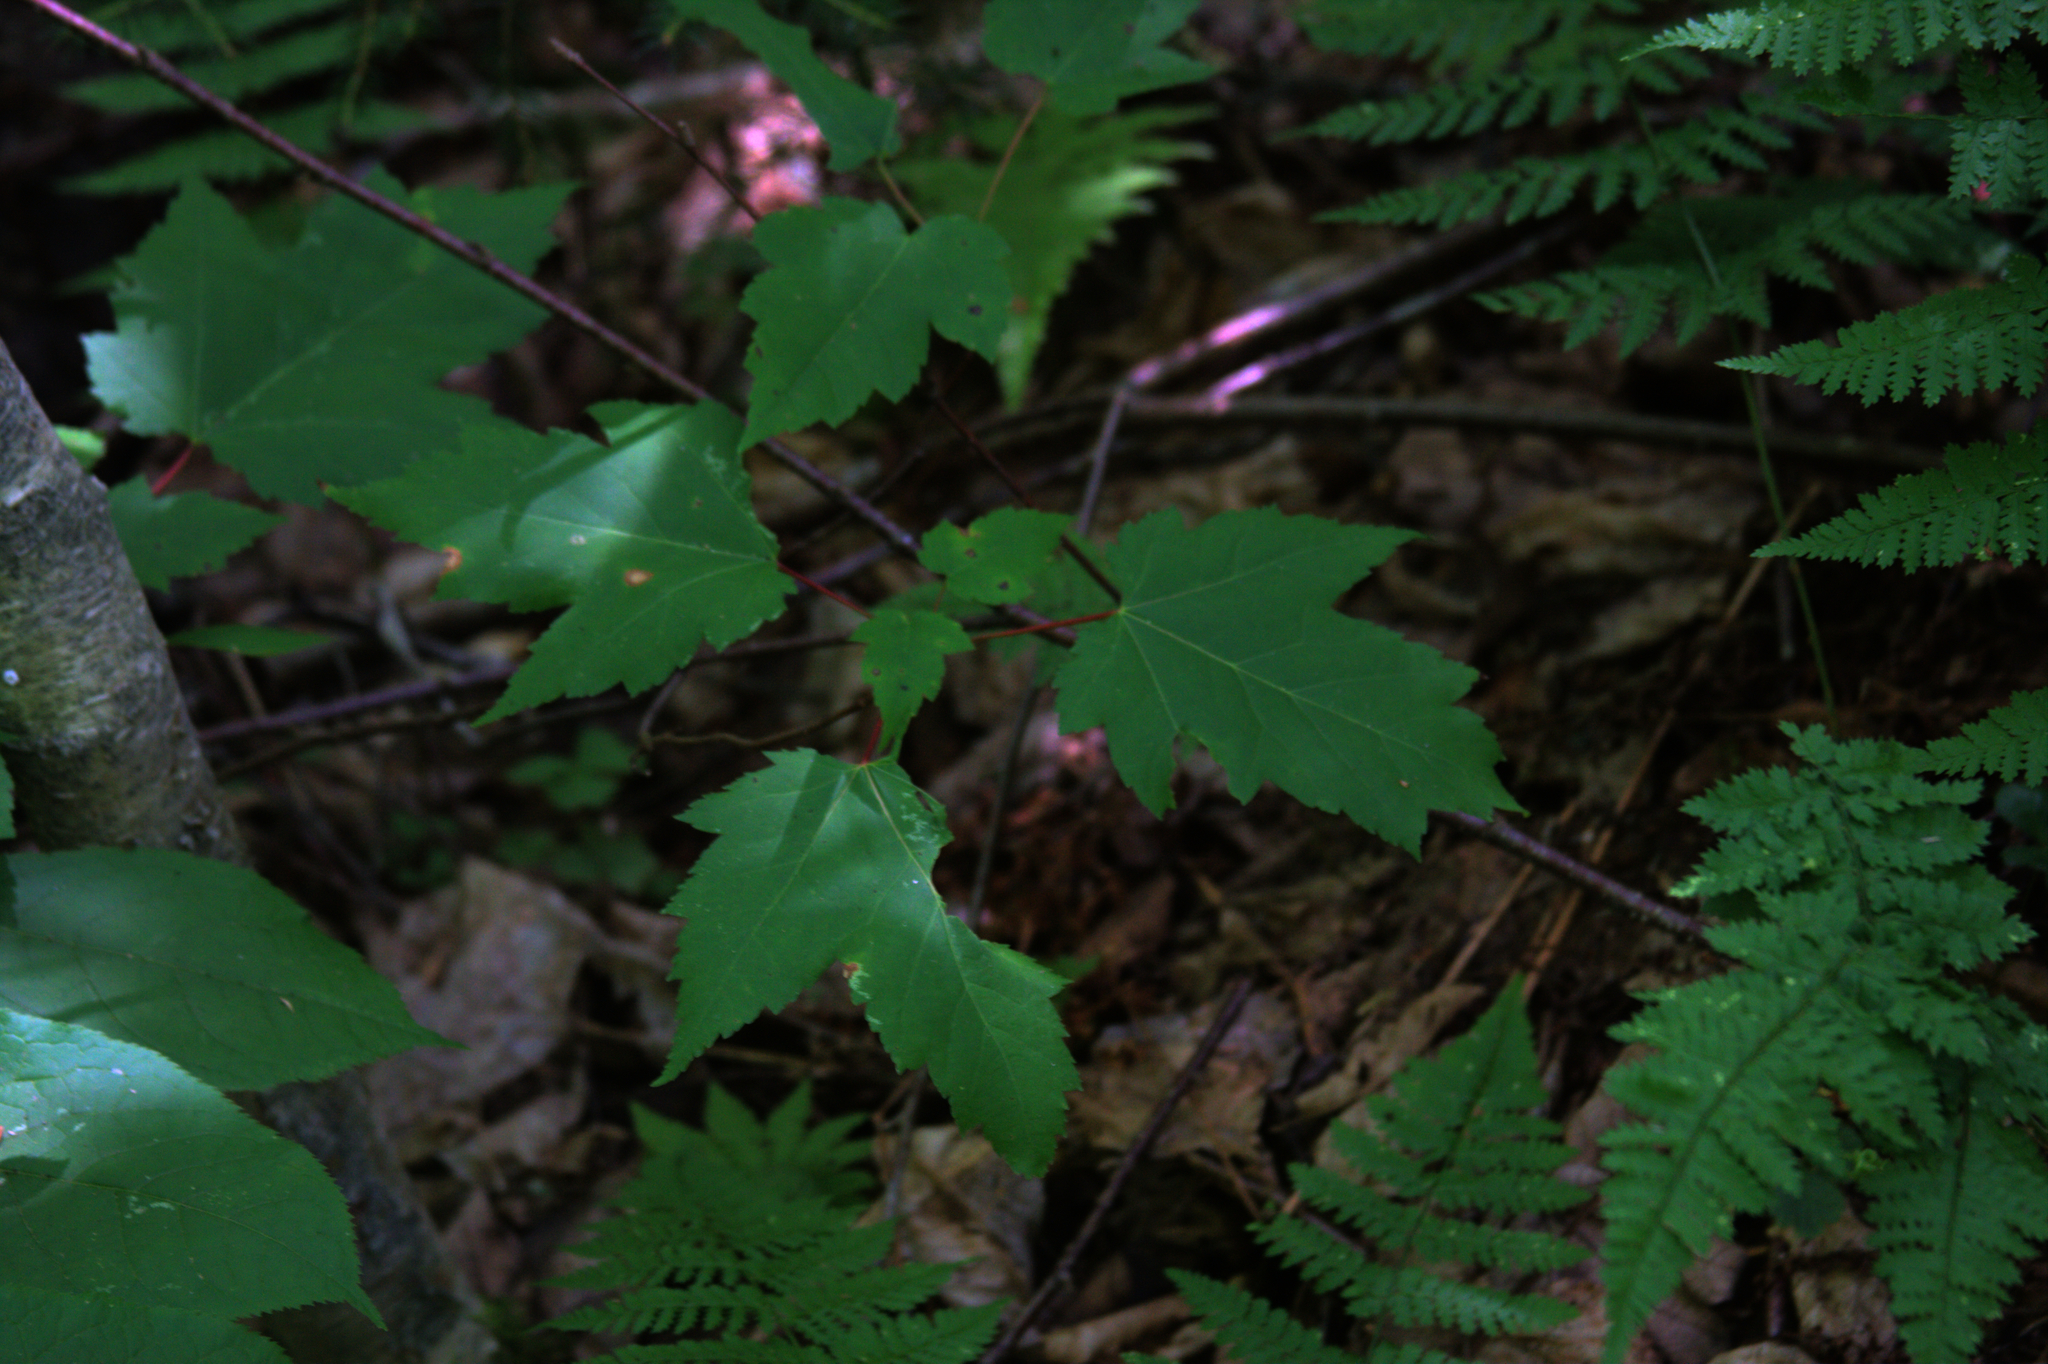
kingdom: Plantae
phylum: Tracheophyta
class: Magnoliopsida
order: Sapindales
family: Sapindaceae
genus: Acer
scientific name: Acer rubrum
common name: Red maple
